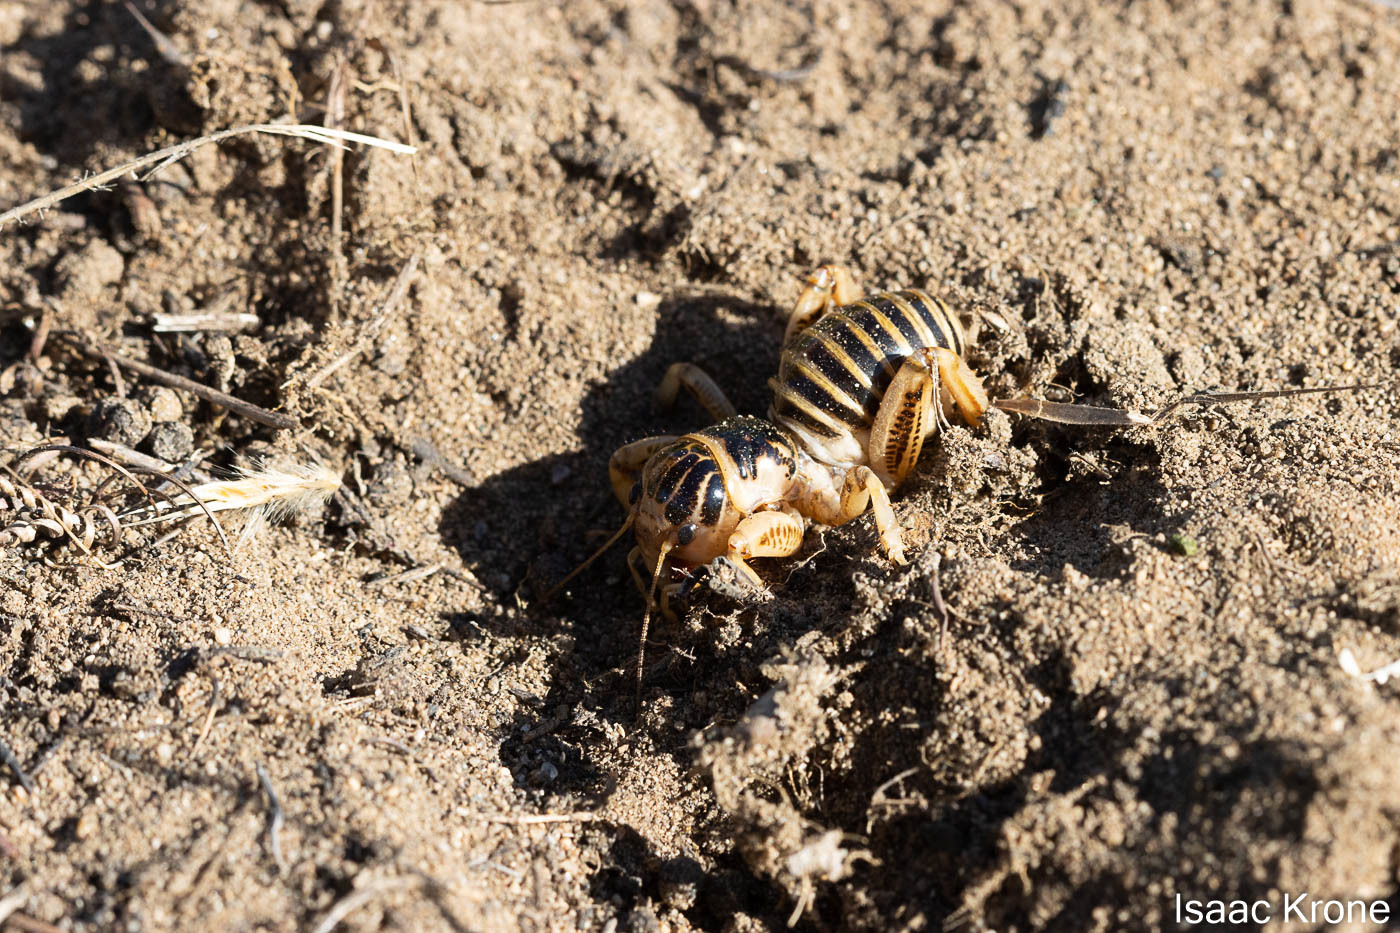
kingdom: Animalia
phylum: Arthropoda
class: Insecta
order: Orthoptera
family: Stenopelmatidae
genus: Ammopelmatus
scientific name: Ammopelmatus pictus
